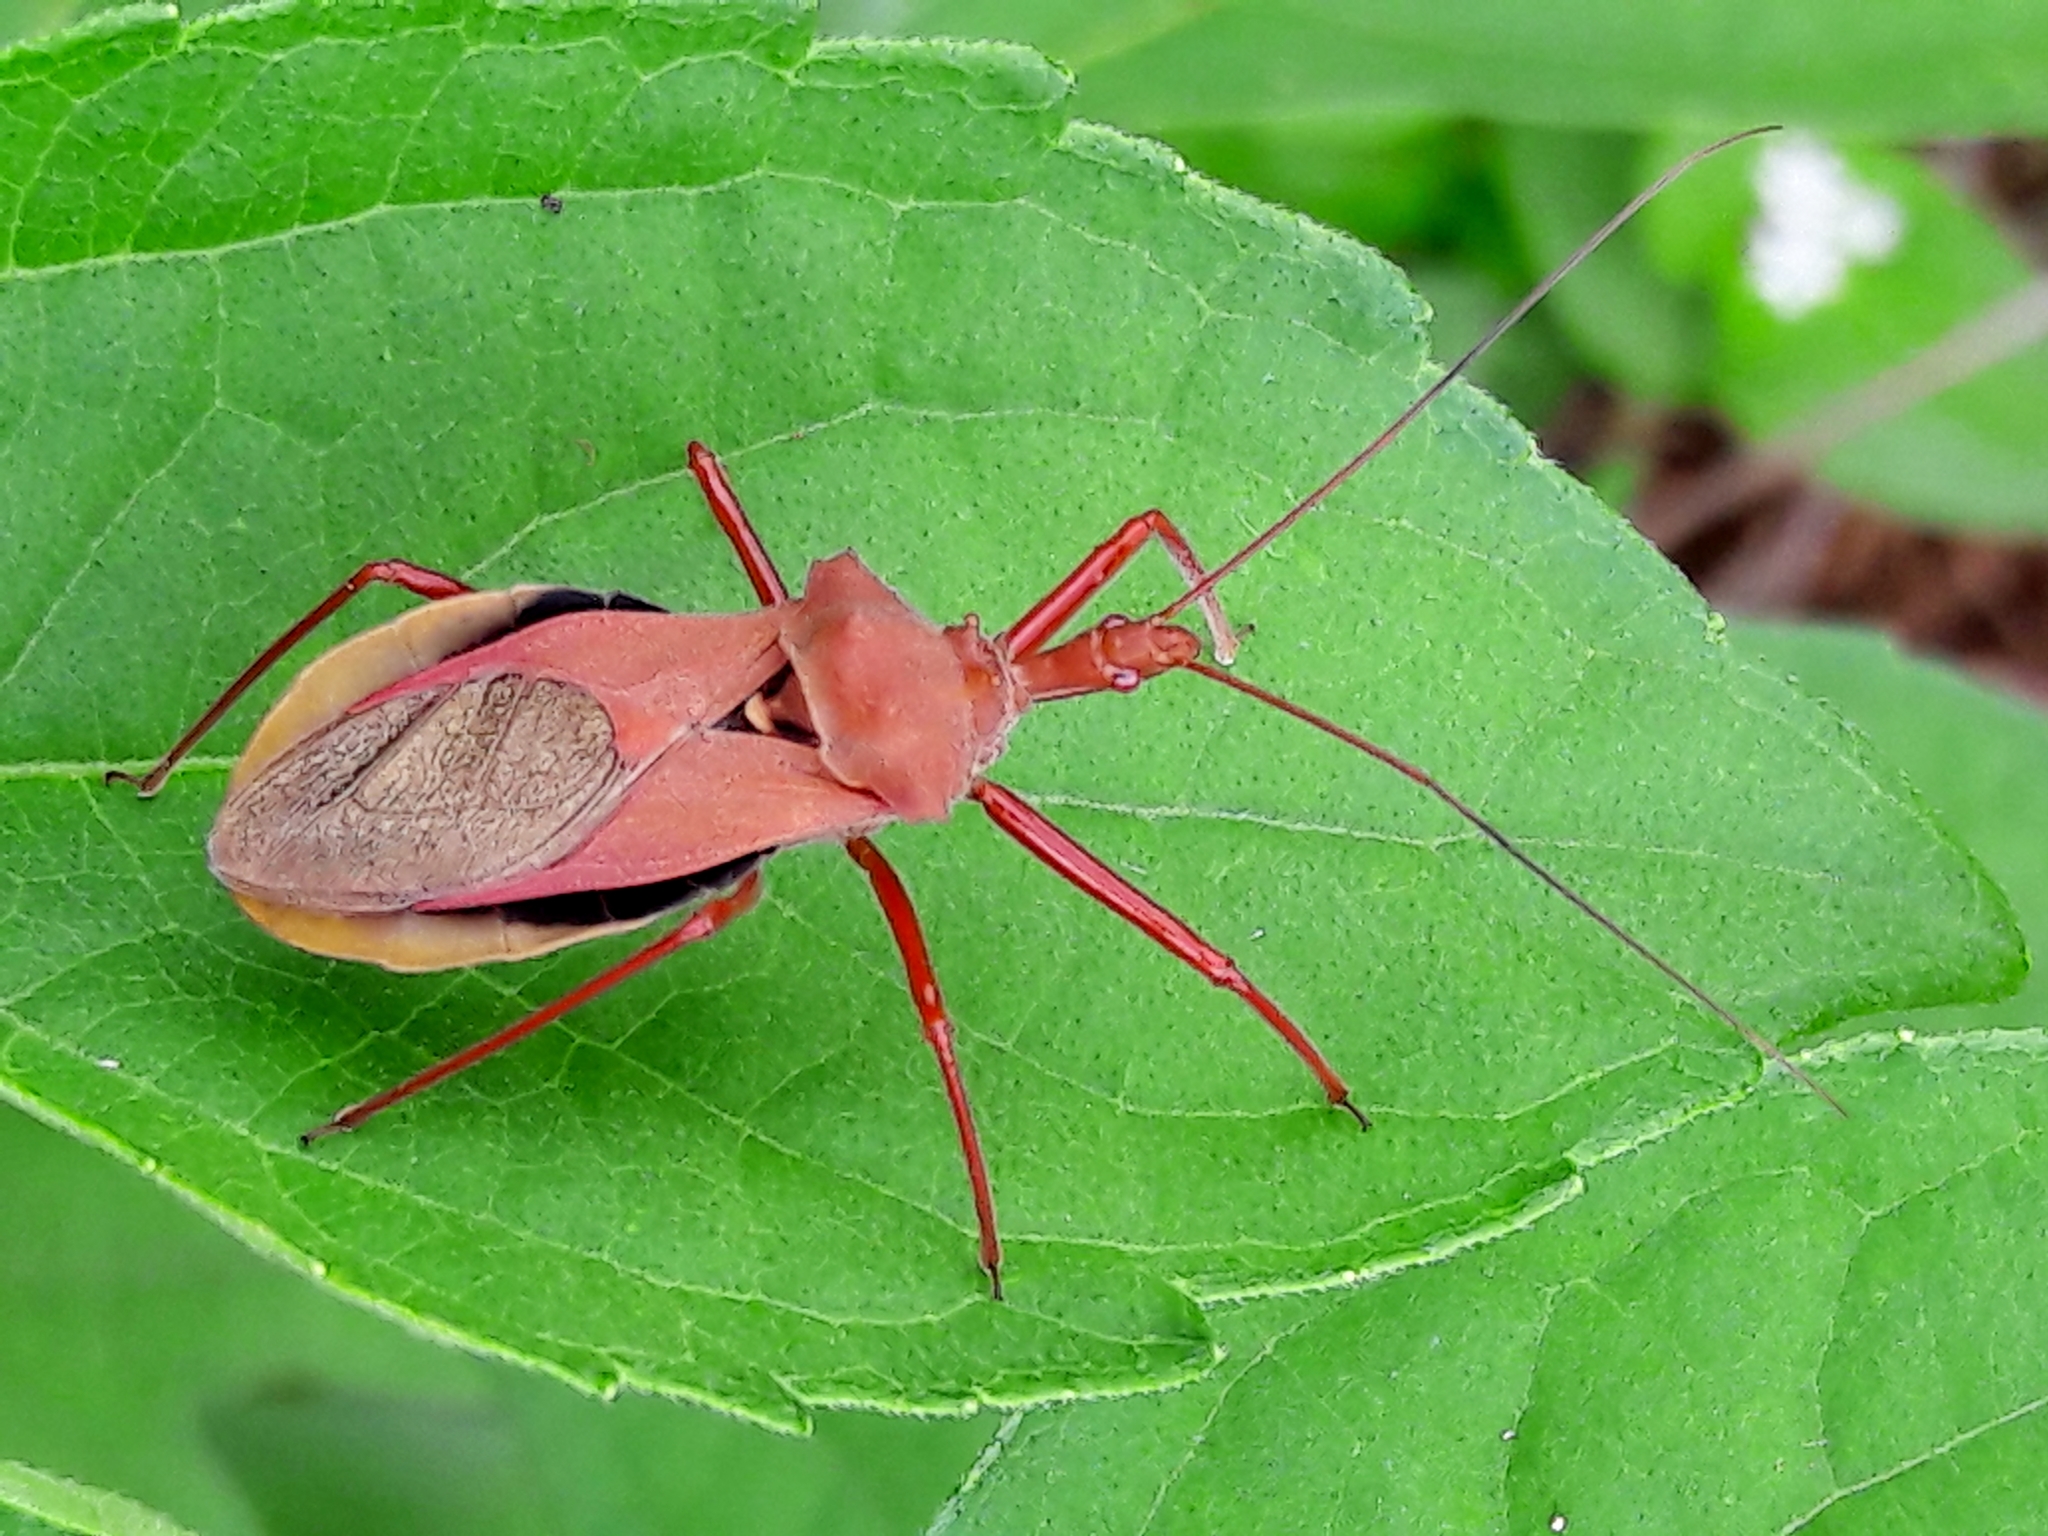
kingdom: Animalia
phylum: Arthropoda
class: Insecta
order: Hemiptera
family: Reduviidae
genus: Montina
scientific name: Montina confusa
